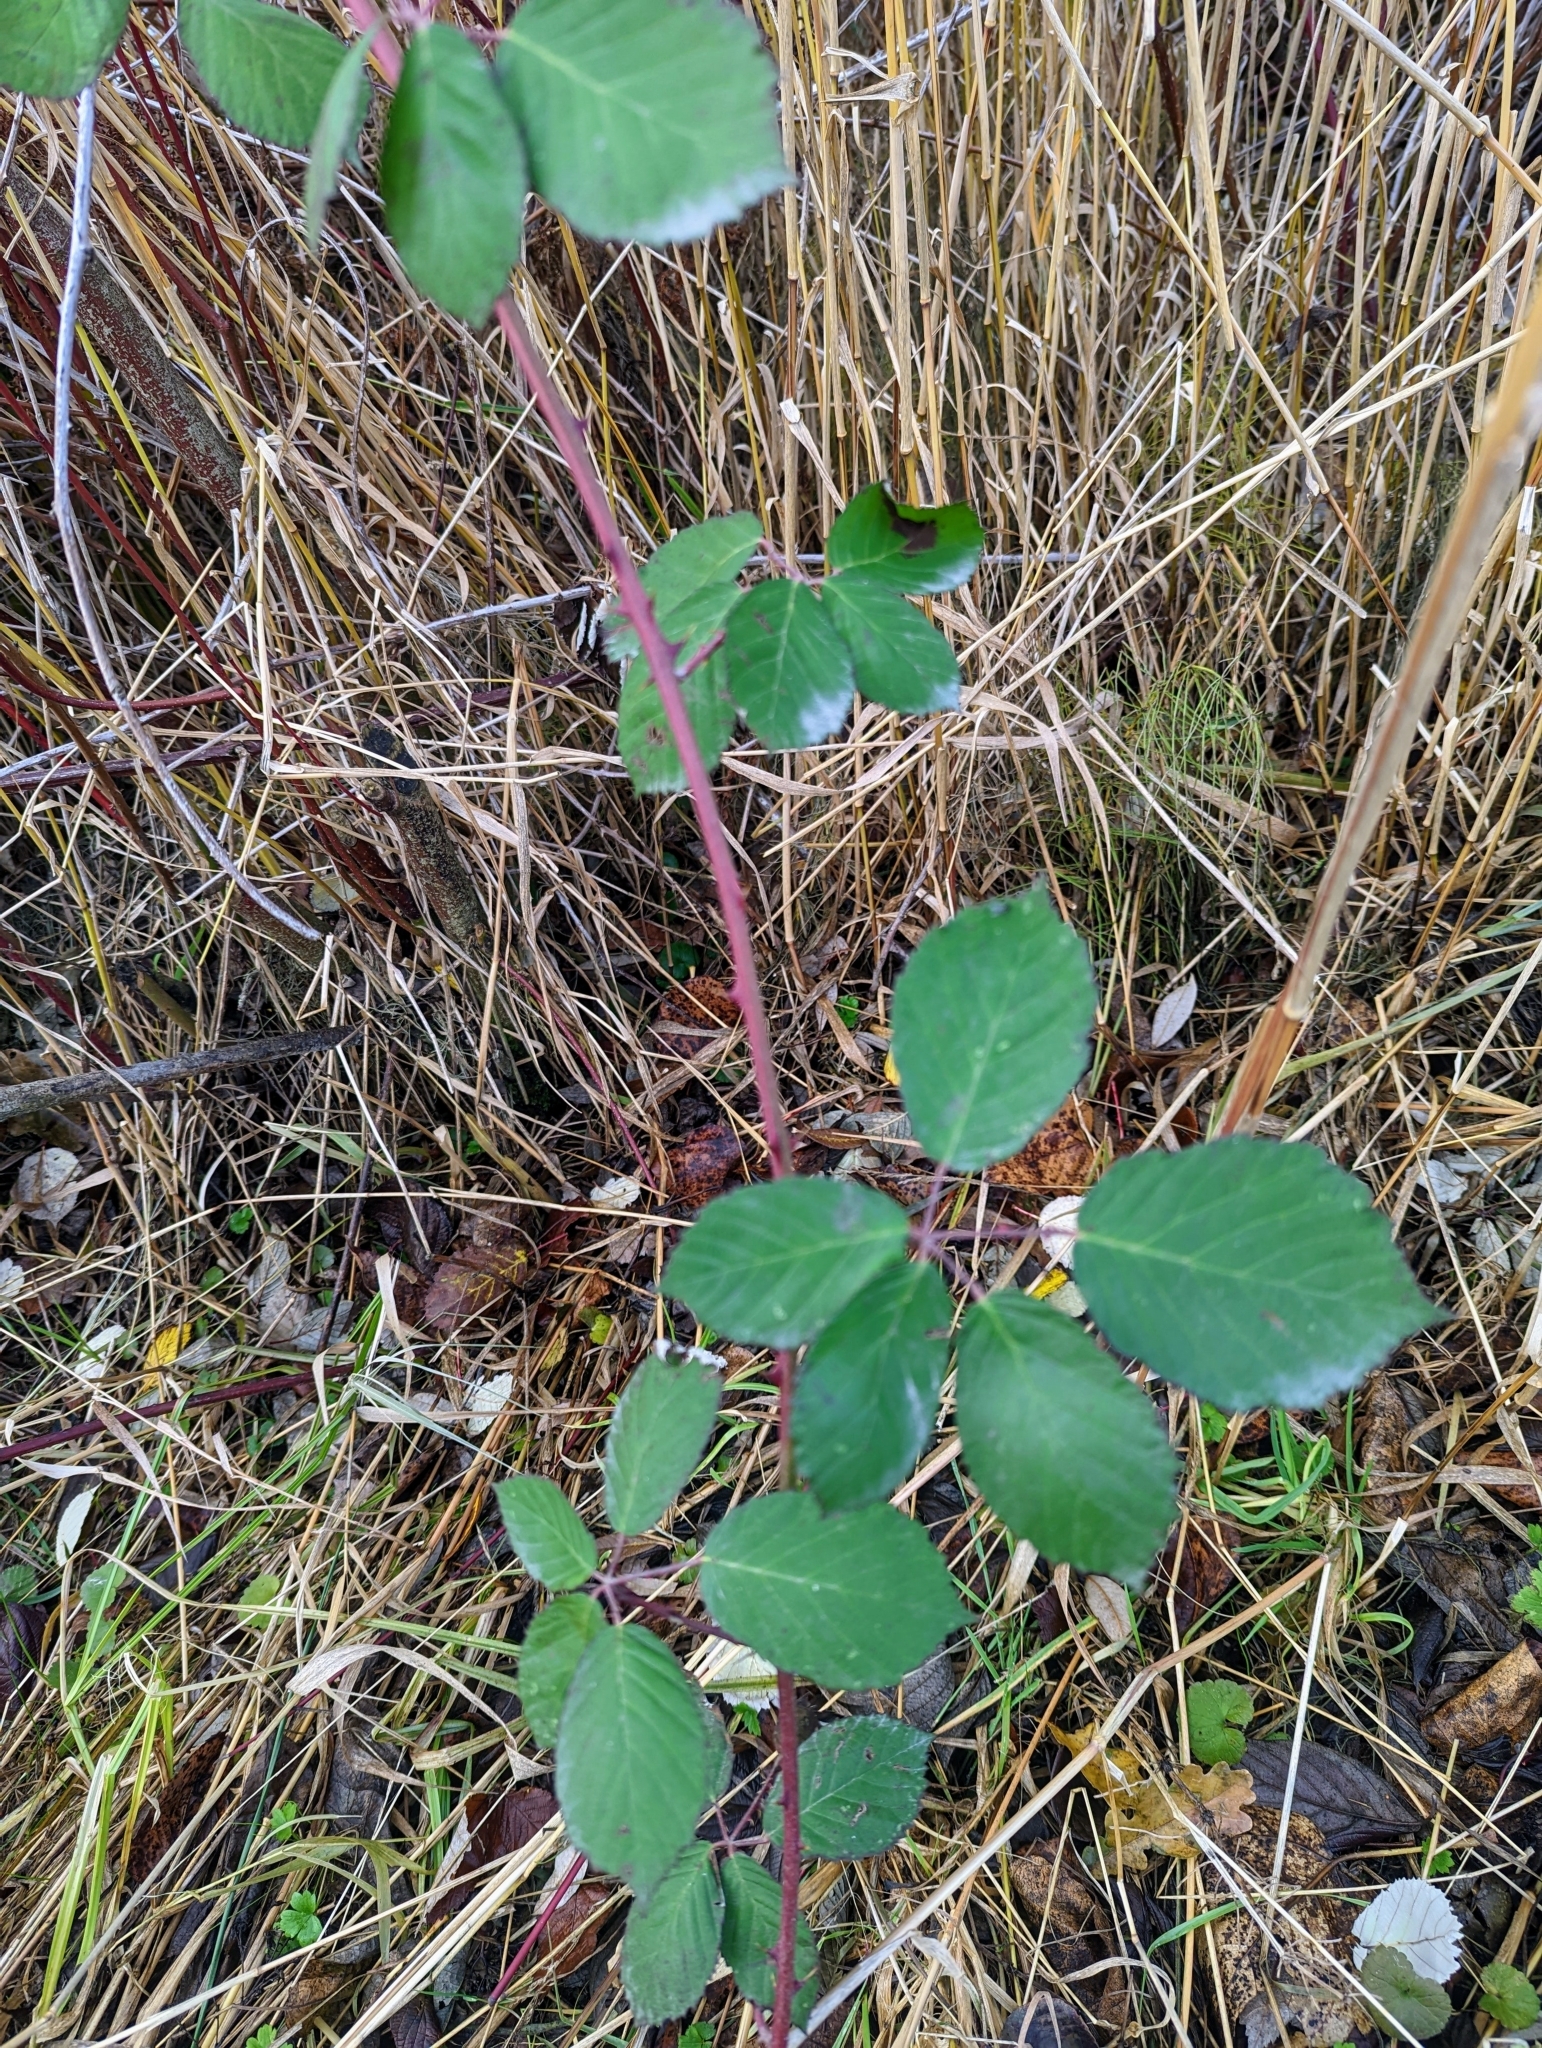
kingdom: Plantae
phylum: Tracheophyta
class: Magnoliopsida
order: Rosales
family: Rosaceae
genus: Rubus
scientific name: Rubus bifrons
